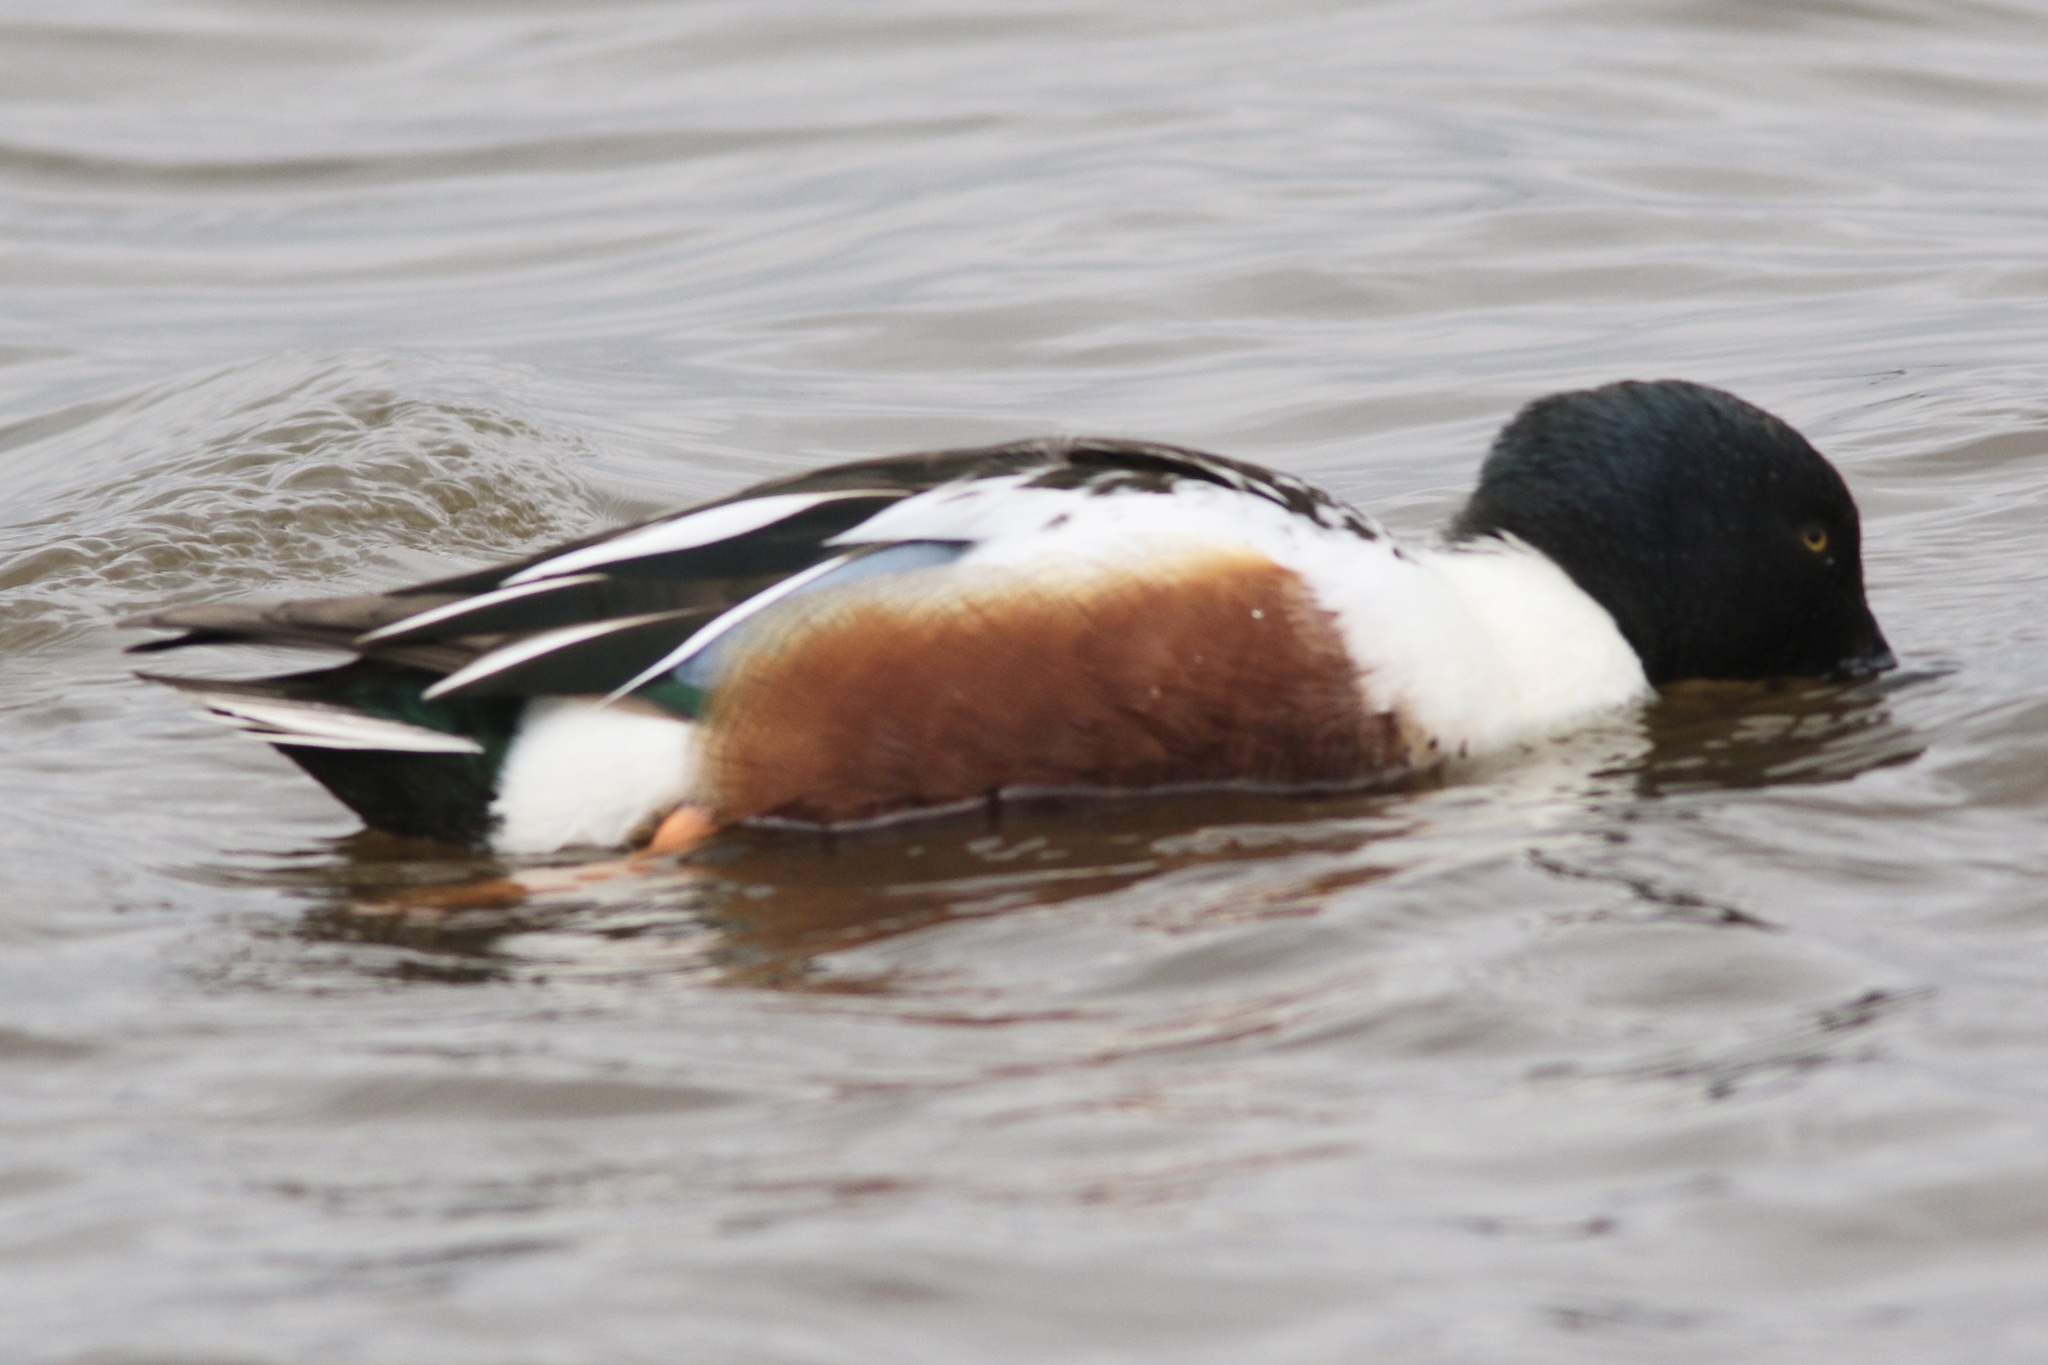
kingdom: Animalia
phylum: Chordata
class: Aves
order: Anseriformes
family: Anatidae
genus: Spatula
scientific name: Spatula clypeata
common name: Northern shoveler
